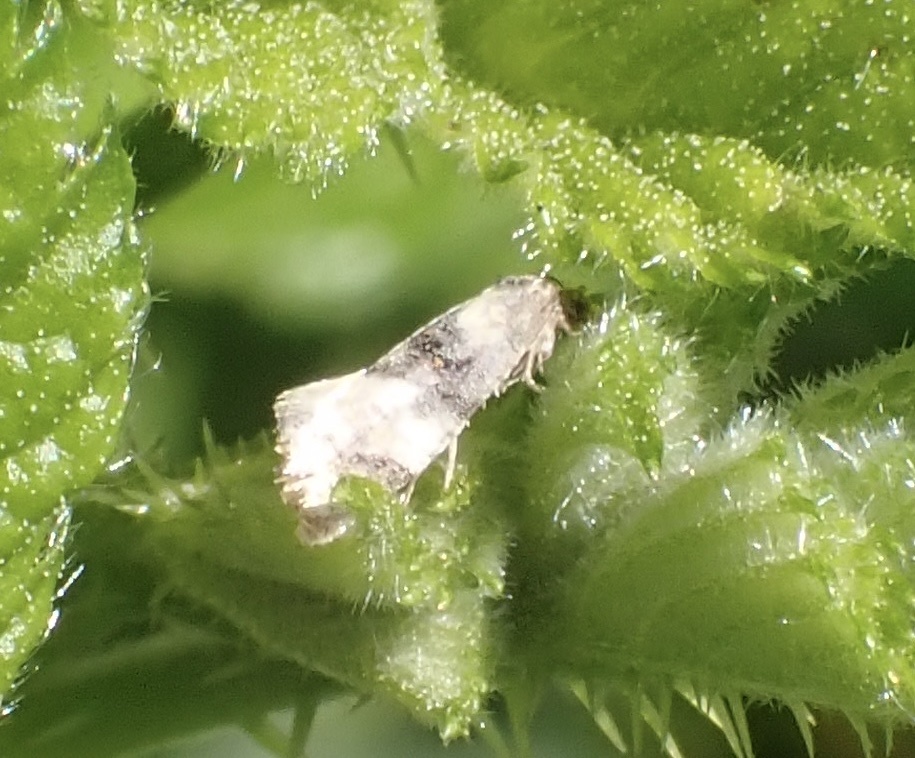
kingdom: Animalia
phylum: Arthropoda
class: Insecta
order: Lepidoptera
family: Tortricidae
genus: Thyraylia
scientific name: Thyraylia nana
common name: Birch conch
